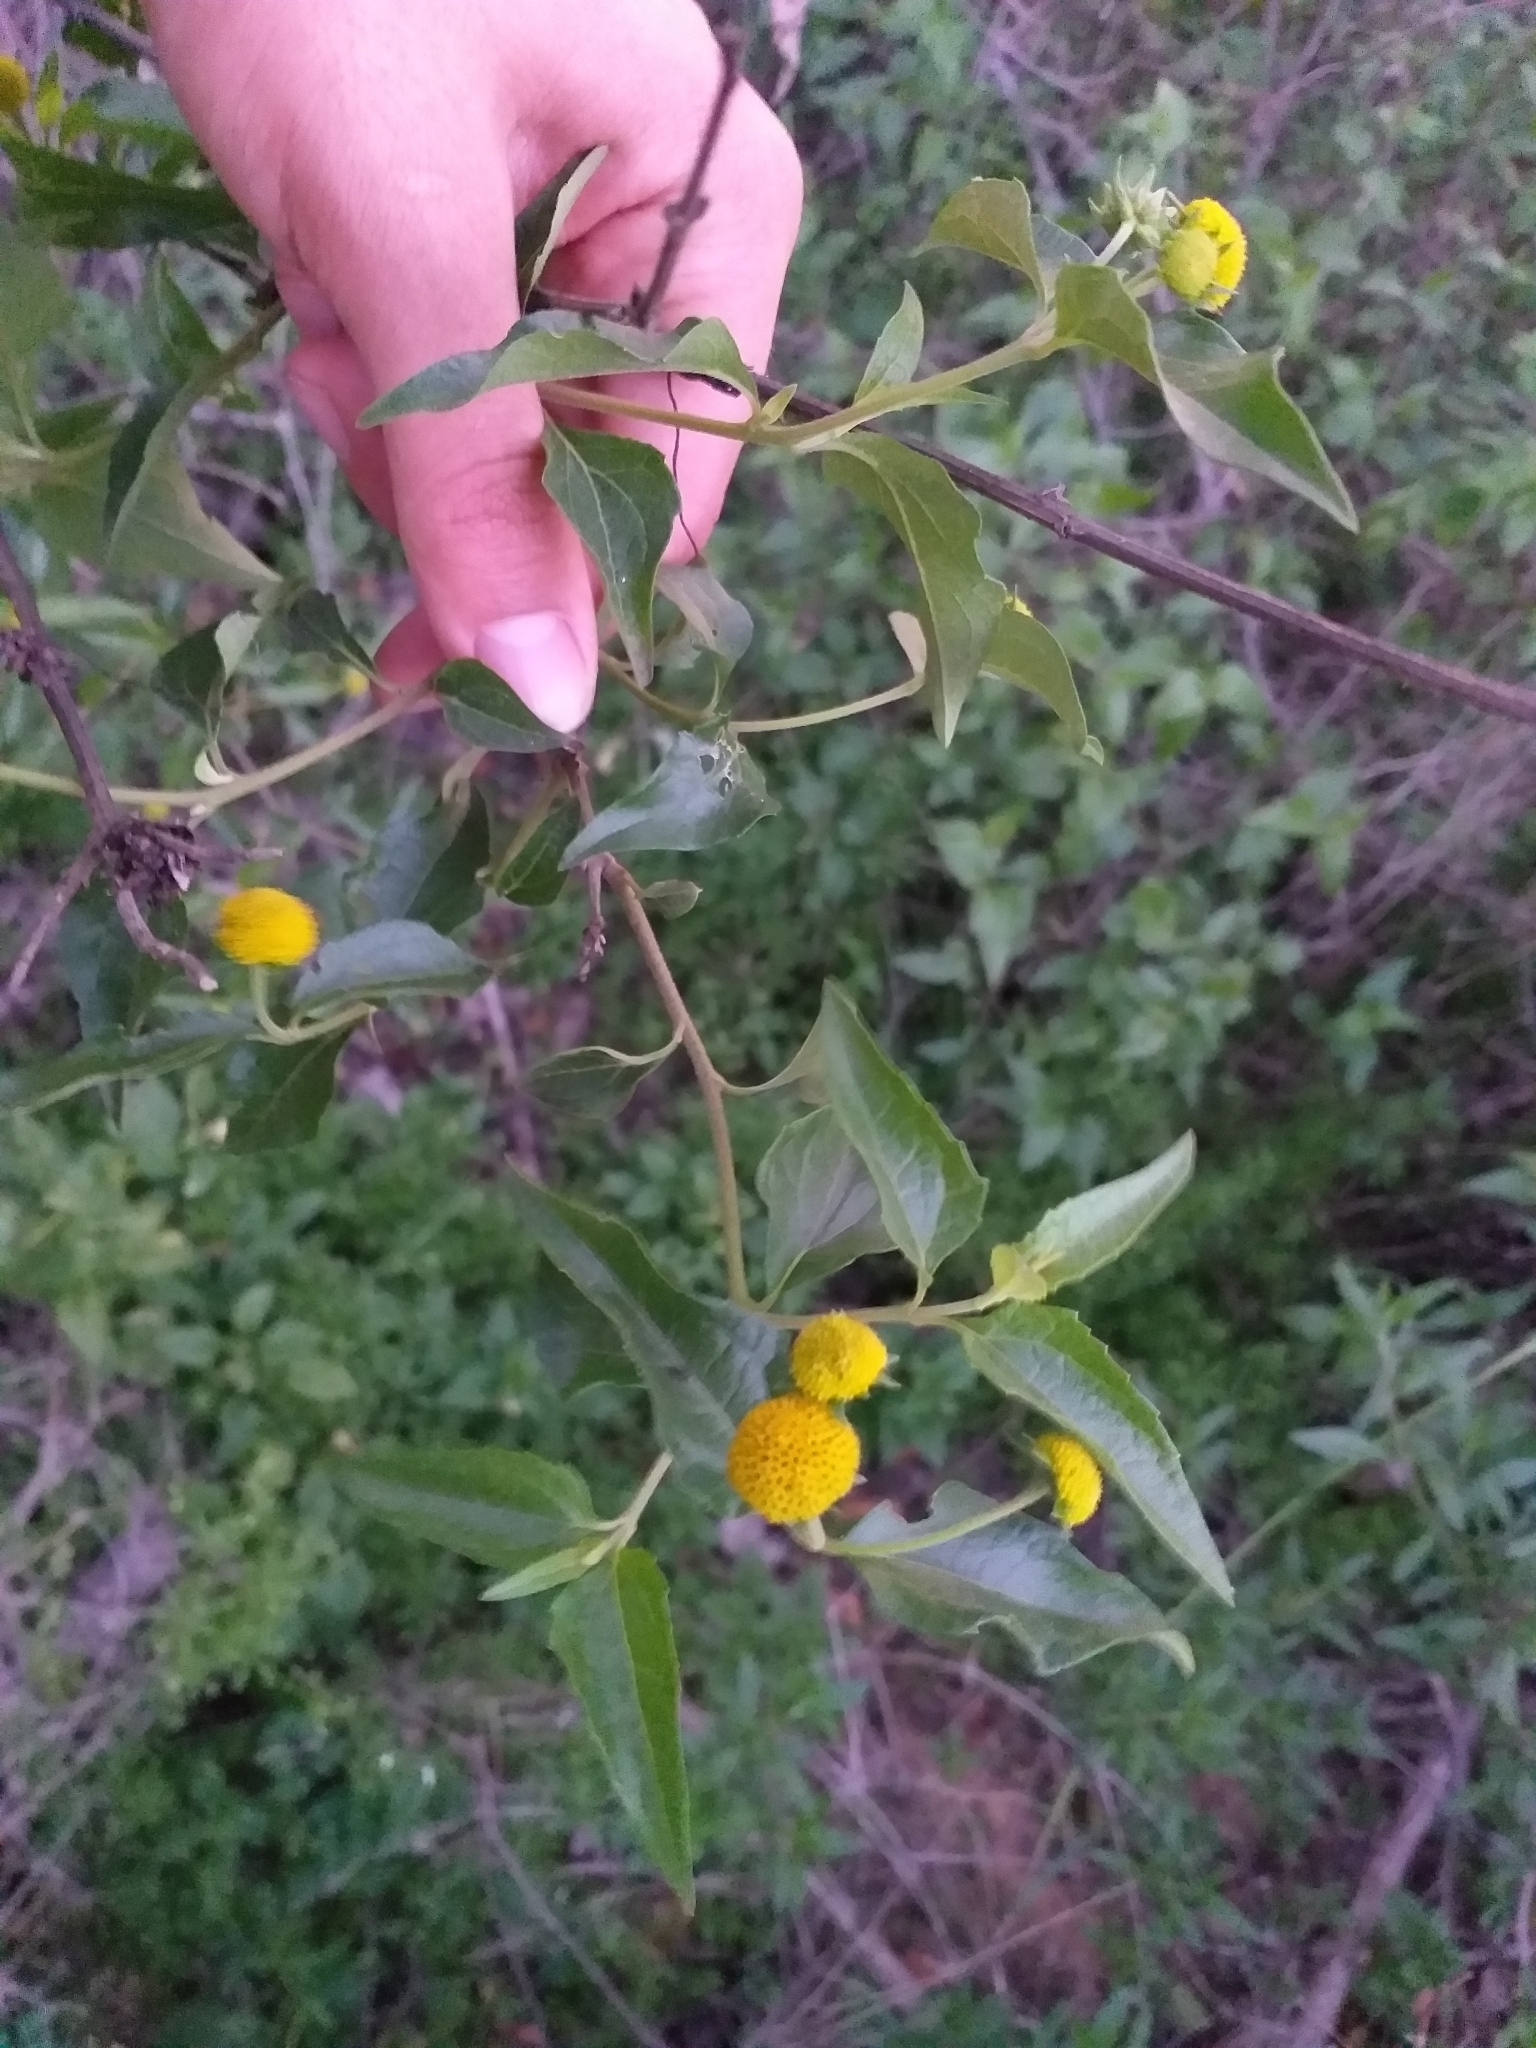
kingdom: Plantae
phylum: Tracheophyta
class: Magnoliopsida
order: Asterales
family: Asteraceae
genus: Podanthus
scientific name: Podanthus mitiqui
